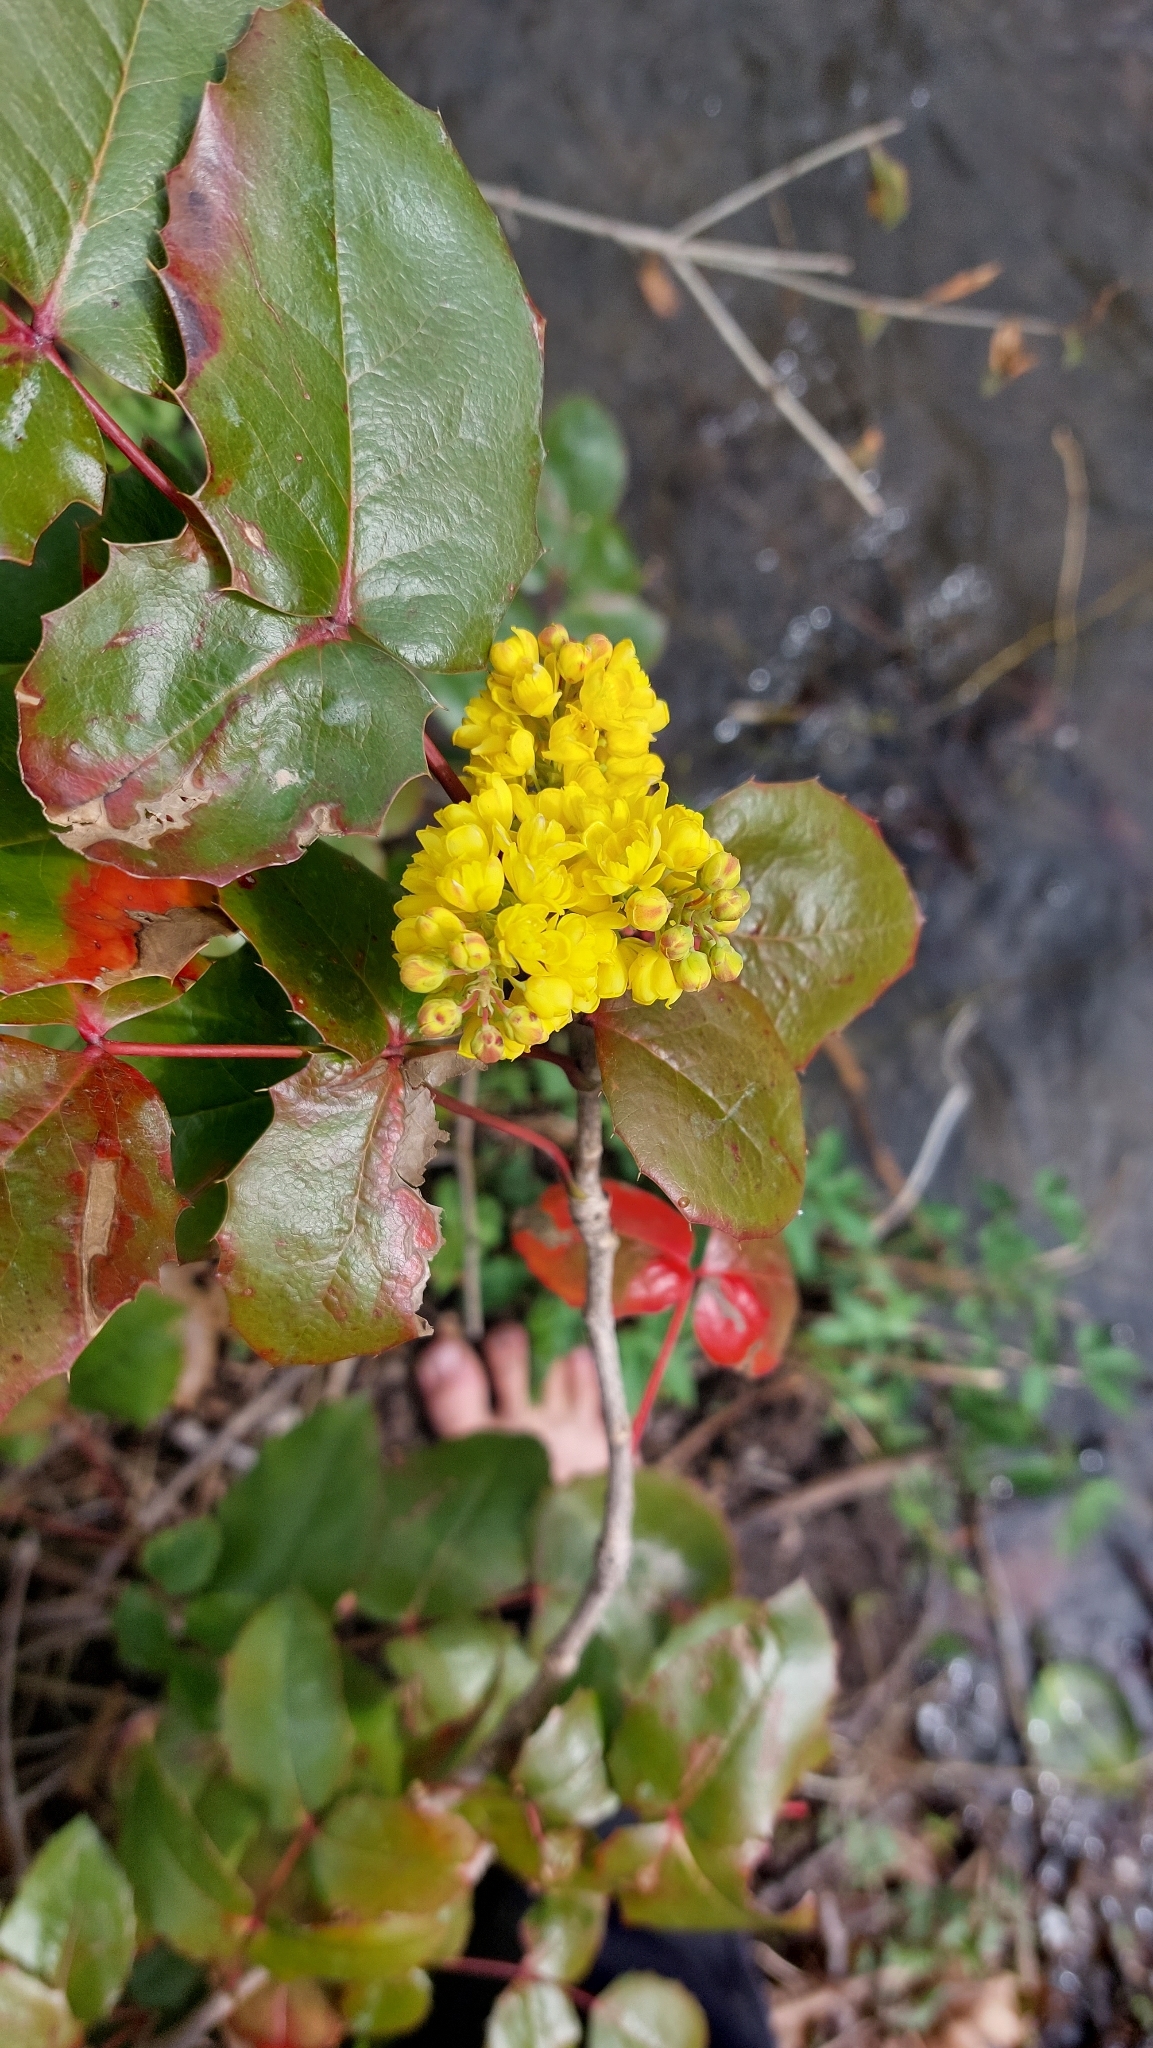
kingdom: Plantae
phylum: Tracheophyta
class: Magnoliopsida
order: Ranunculales
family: Berberidaceae
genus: Mahonia
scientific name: Mahonia aquifolium
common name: Oregon-grape
